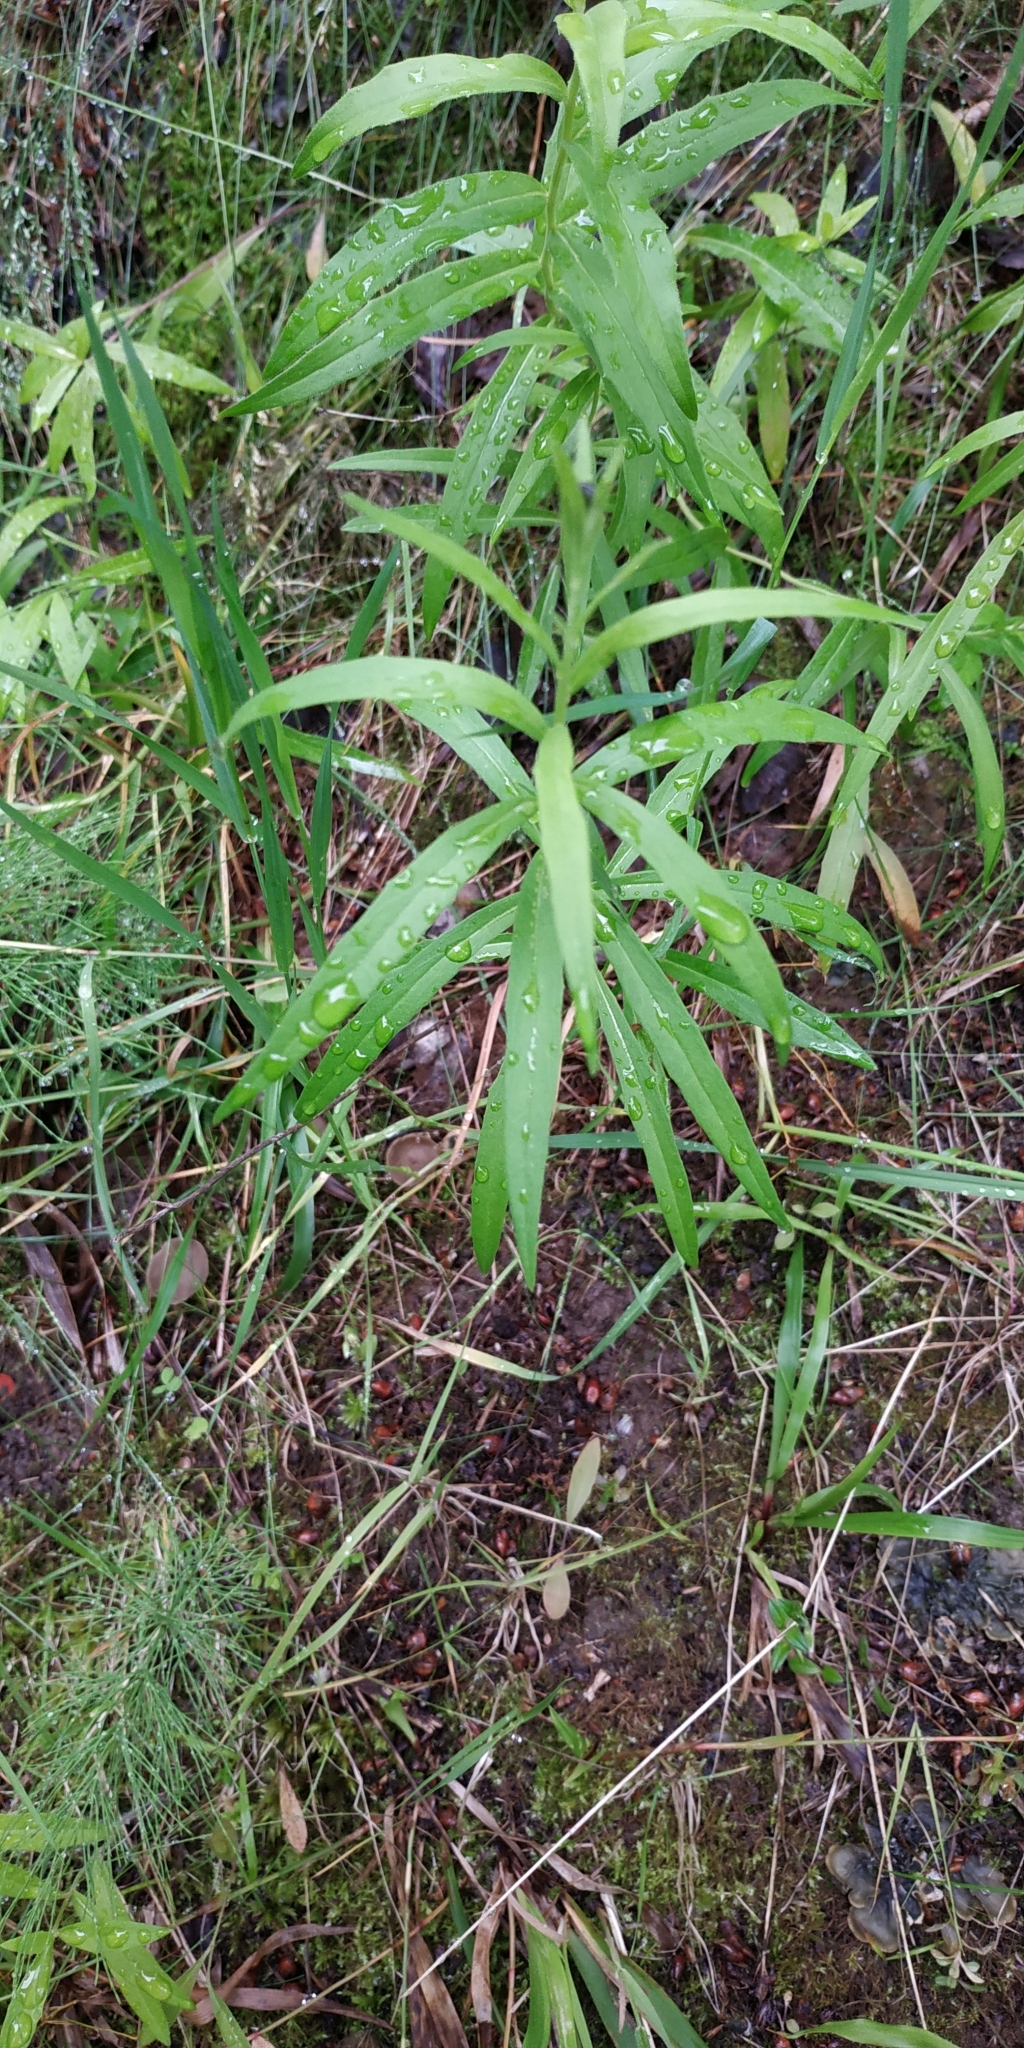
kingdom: Plantae
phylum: Tracheophyta
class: Magnoliopsida
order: Asterales
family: Asteraceae
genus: Hieracium
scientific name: Hieracium umbellatum
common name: Northern hawkweed
